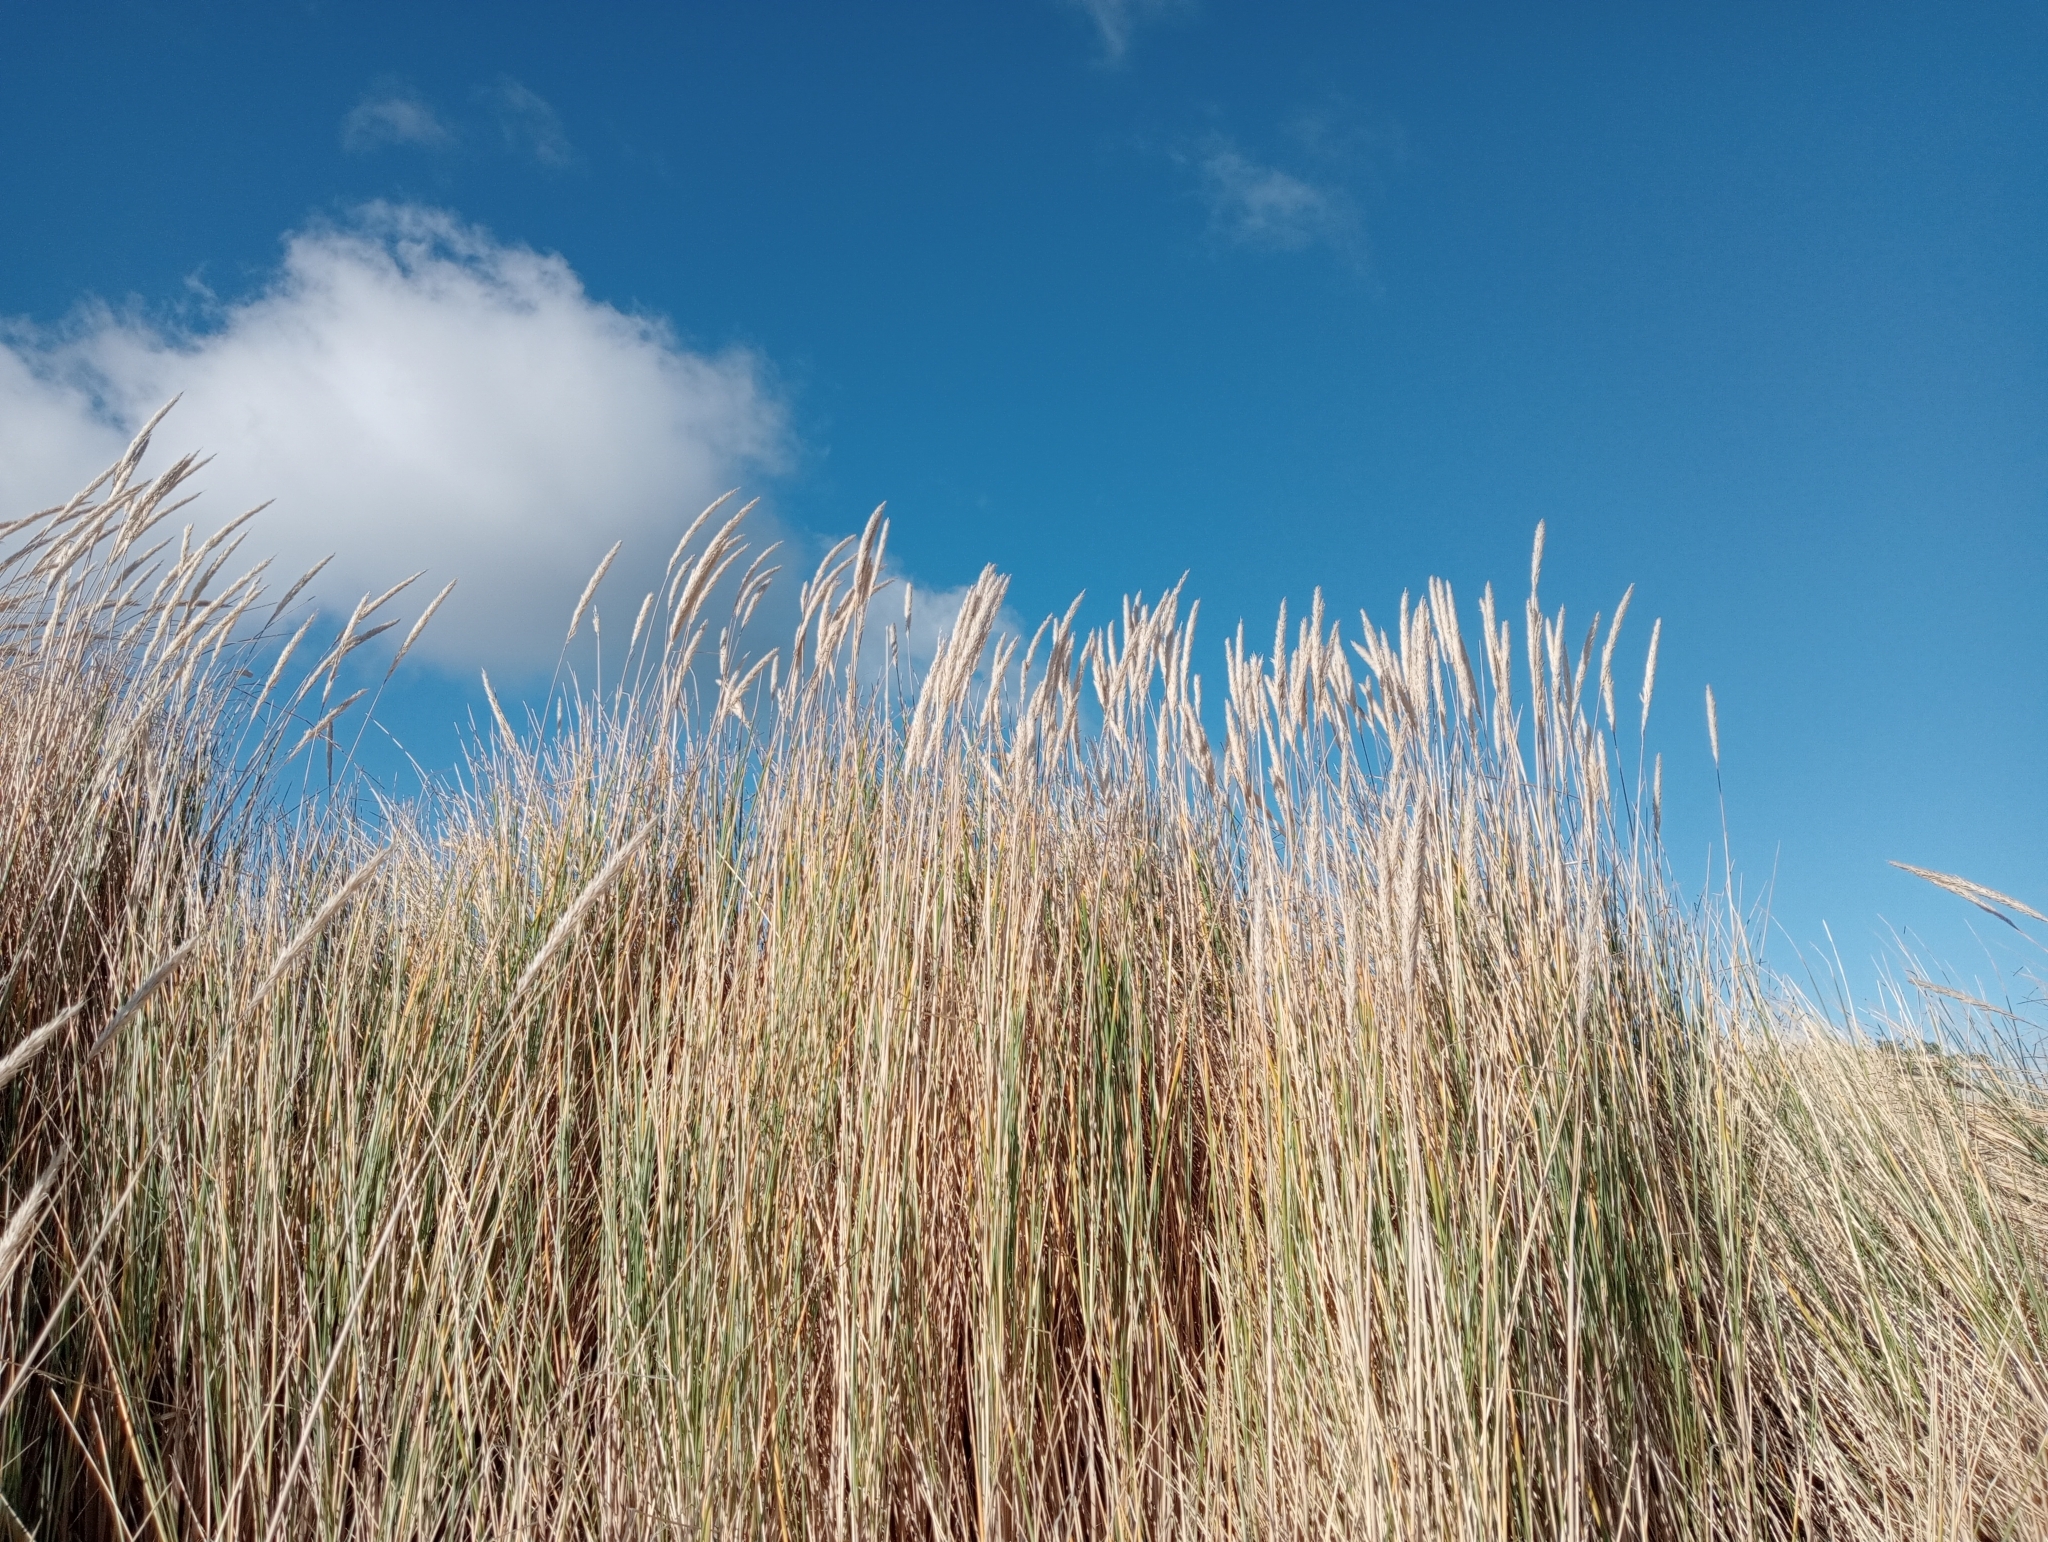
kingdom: Plantae
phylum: Tracheophyta
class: Liliopsida
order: Poales
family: Poaceae
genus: Calamagrostis
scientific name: Calamagrostis arenaria
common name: European beachgrass
